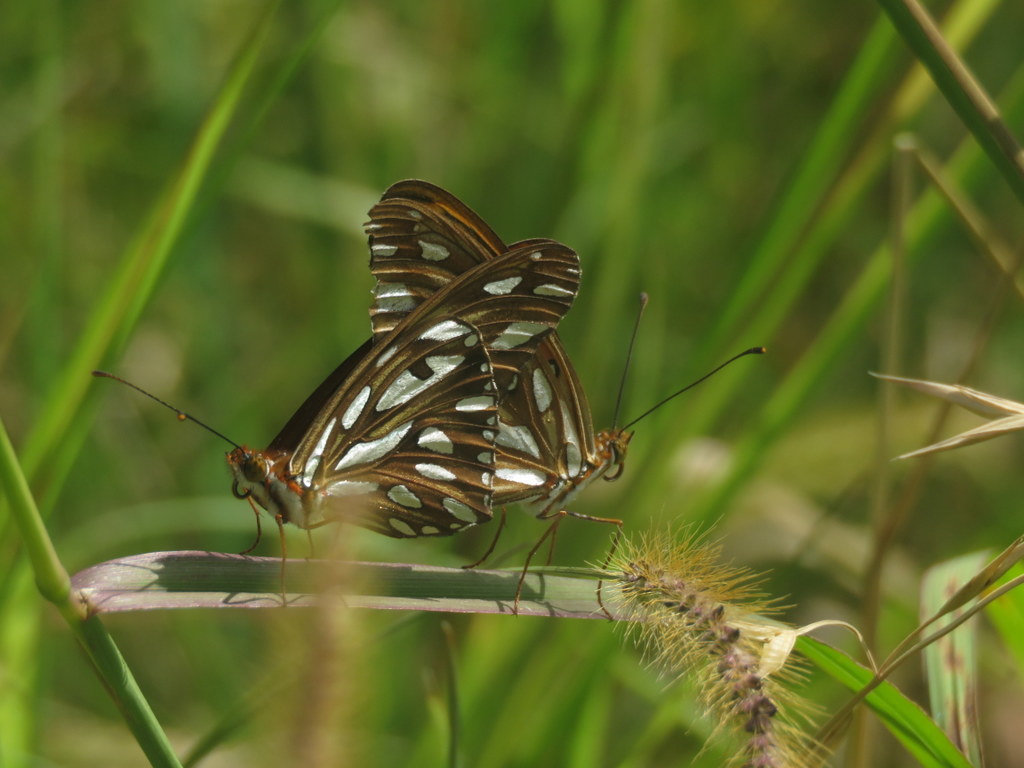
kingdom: Animalia
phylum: Arthropoda
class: Insecta
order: Lepidoptera
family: Nymphalidae
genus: Dione
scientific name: Dione vanillae
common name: Gulf fritillary
